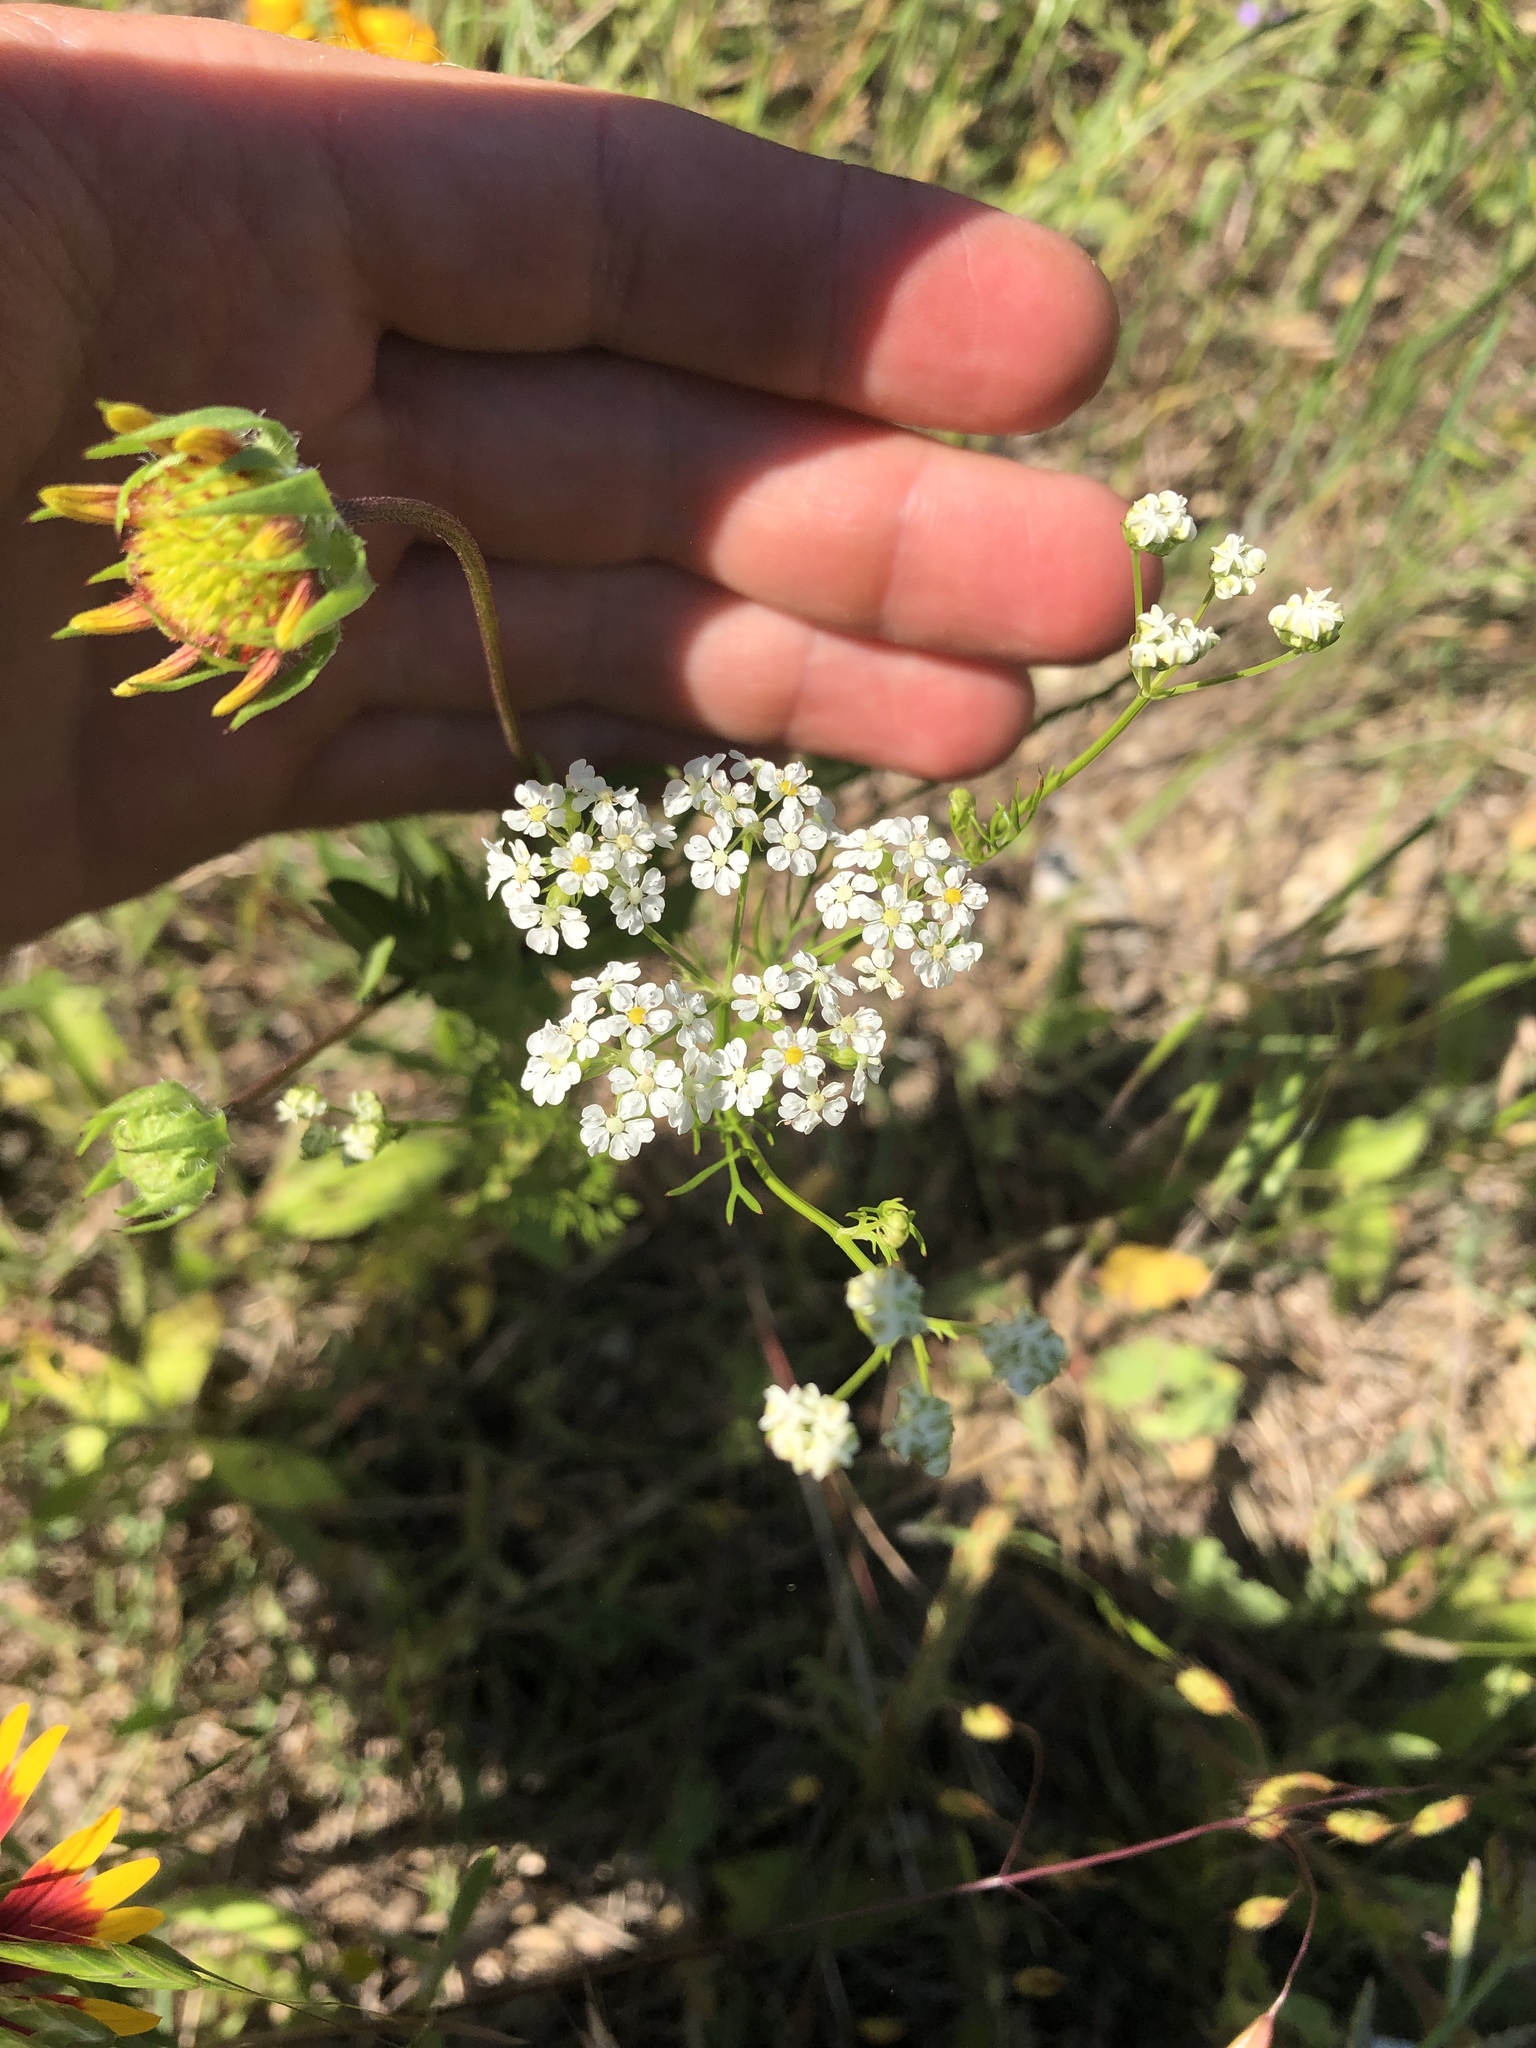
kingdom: Plantae
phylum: Tracheophyta
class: Magnoliopsida
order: Apiales
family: Apiaceae
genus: Atrema
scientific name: Atrema americanum
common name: Prairie-bishop
